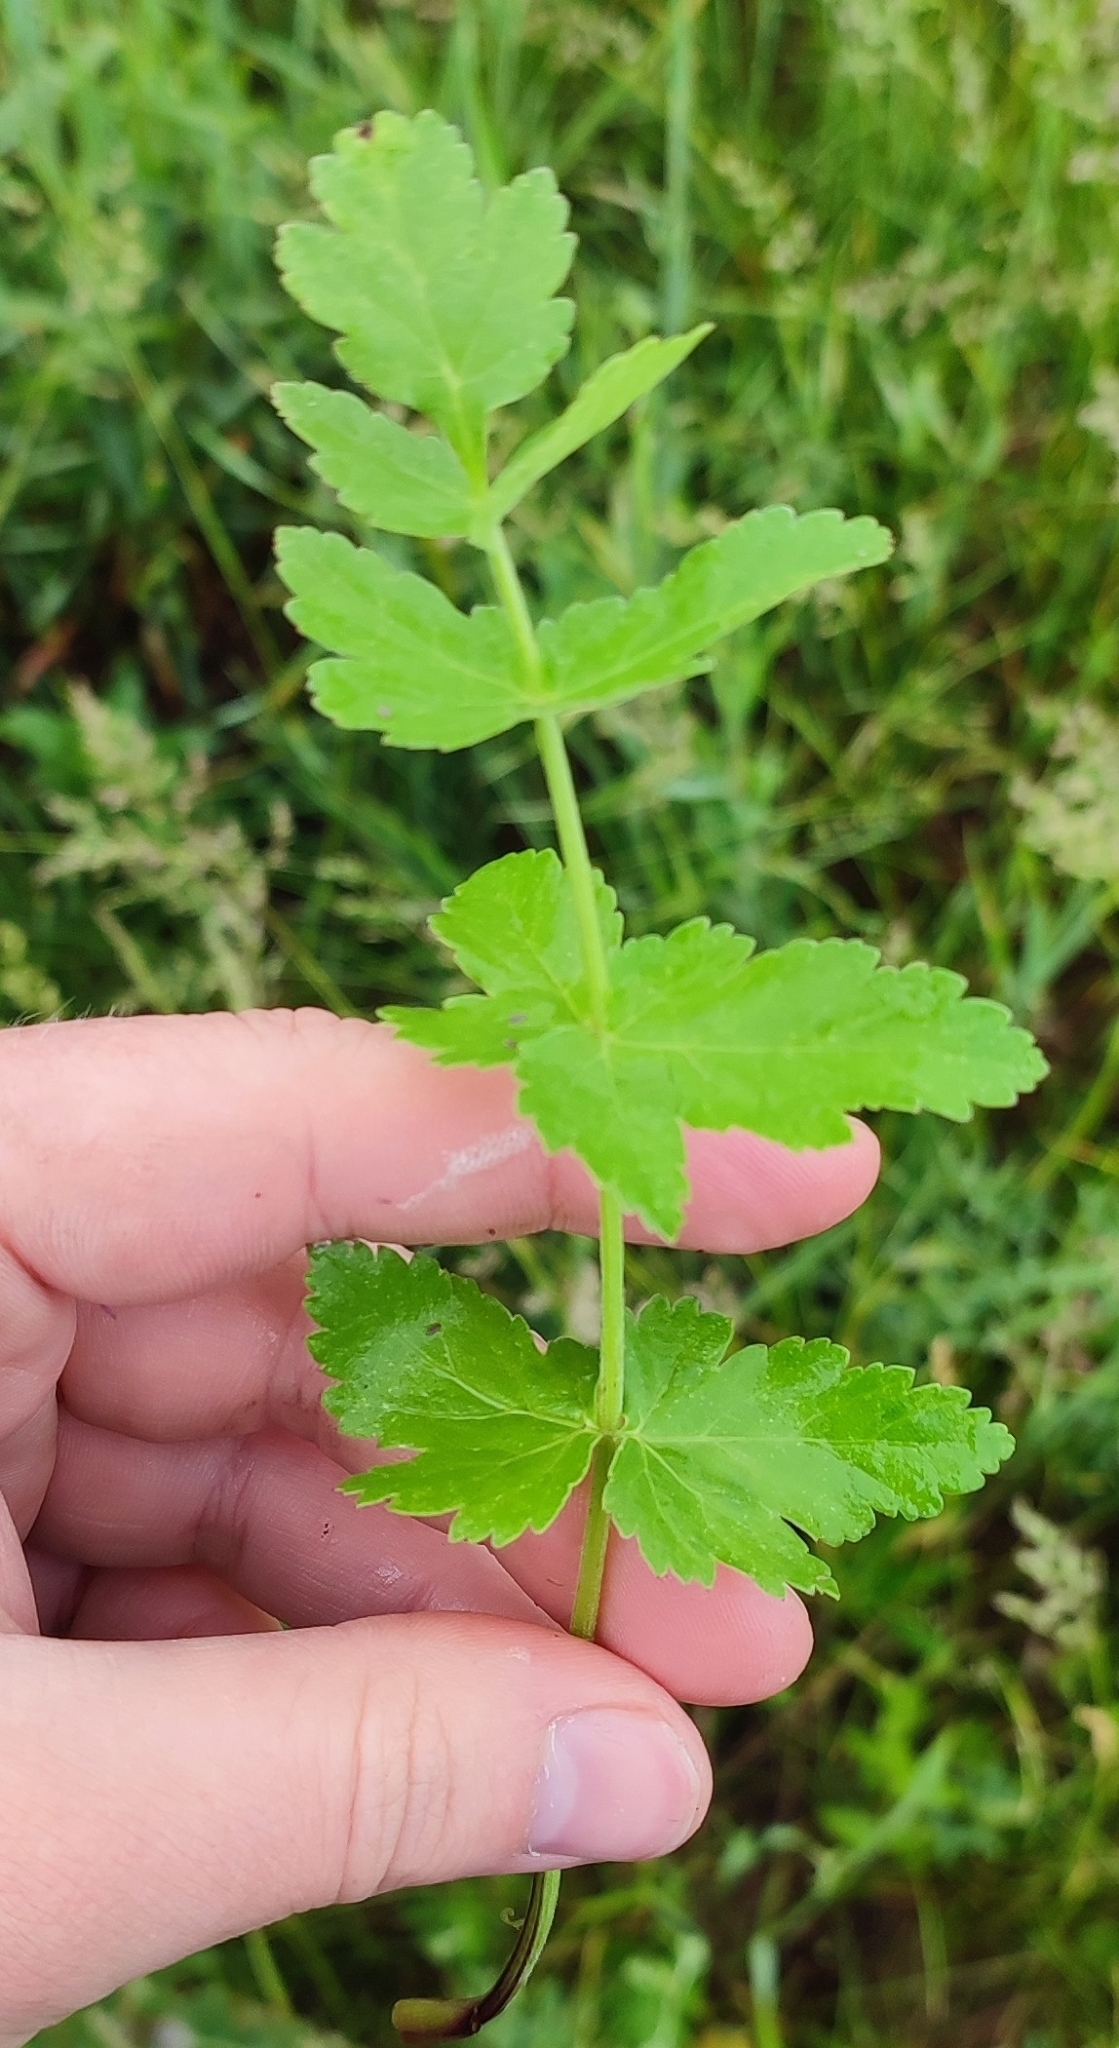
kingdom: Plantae
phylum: Tracheophyta
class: Magnoliopsida
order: Apiales
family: Apiaceae
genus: Pastinaca
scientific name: Pastinaca sativa
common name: Wild parsnip
